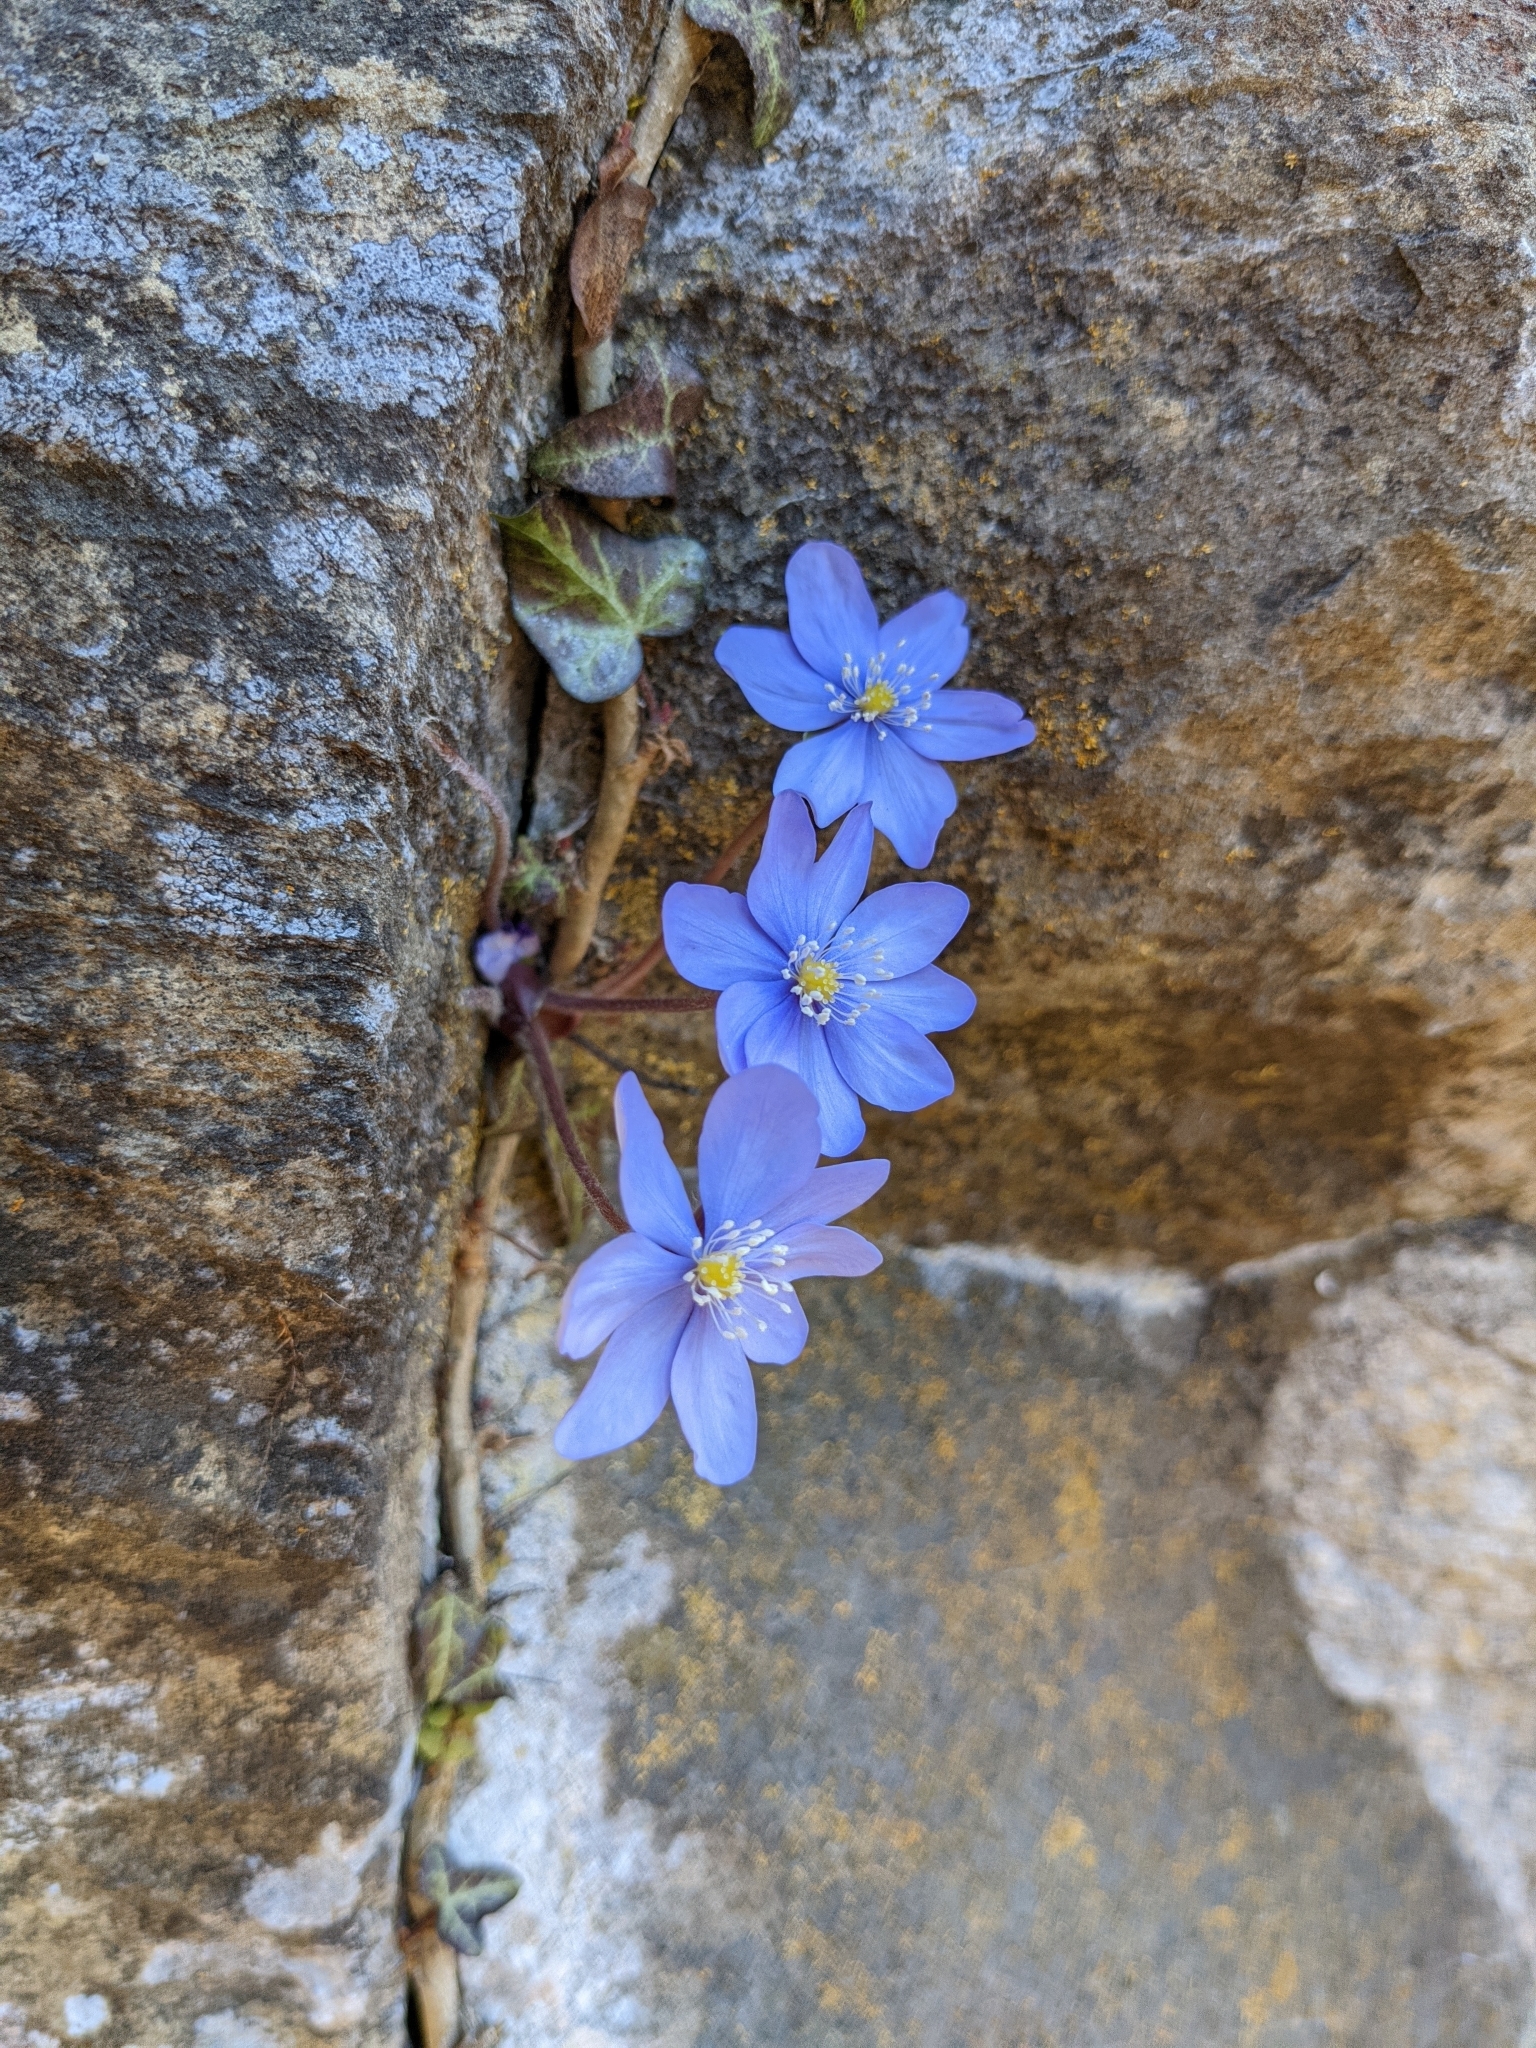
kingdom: Plantae
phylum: Tracheophyta
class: Magnoliopsida
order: Ranunculales
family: Ranunculaceae
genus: Hepatica
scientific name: Hepatica nobilis
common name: Liverleaf
